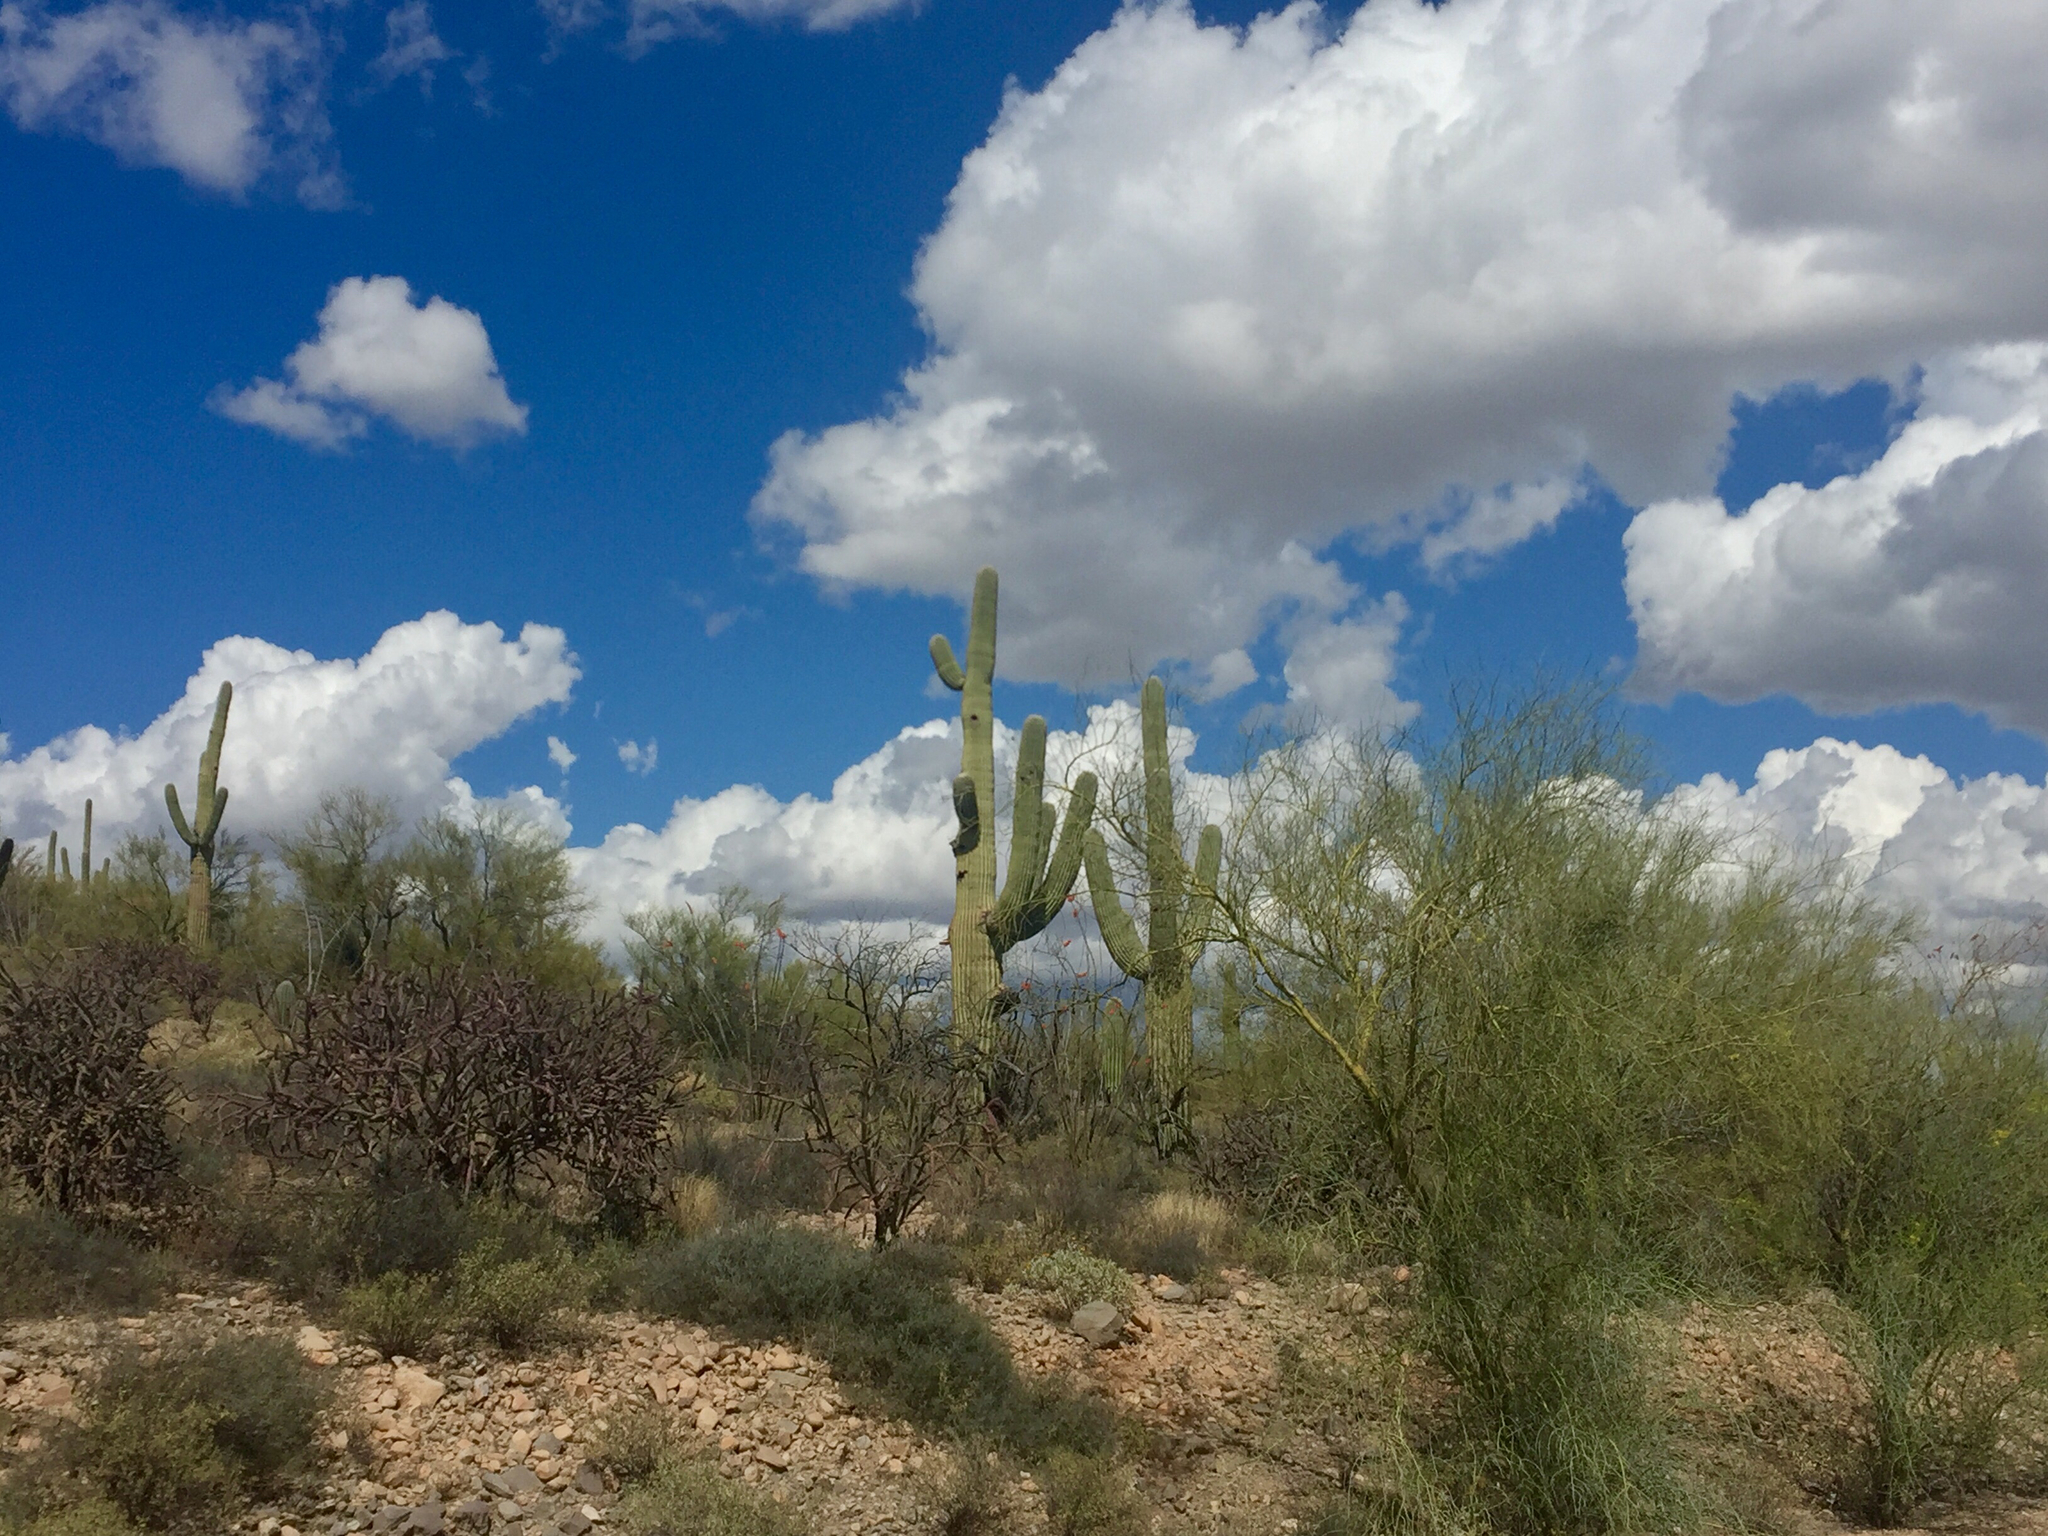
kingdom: Plantae
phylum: Tracheophyta
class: Magnoliopsida
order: Caryophyllales
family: Cactaceae
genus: Carnegiea
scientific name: Carnegiea gigantea
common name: Saguaro
